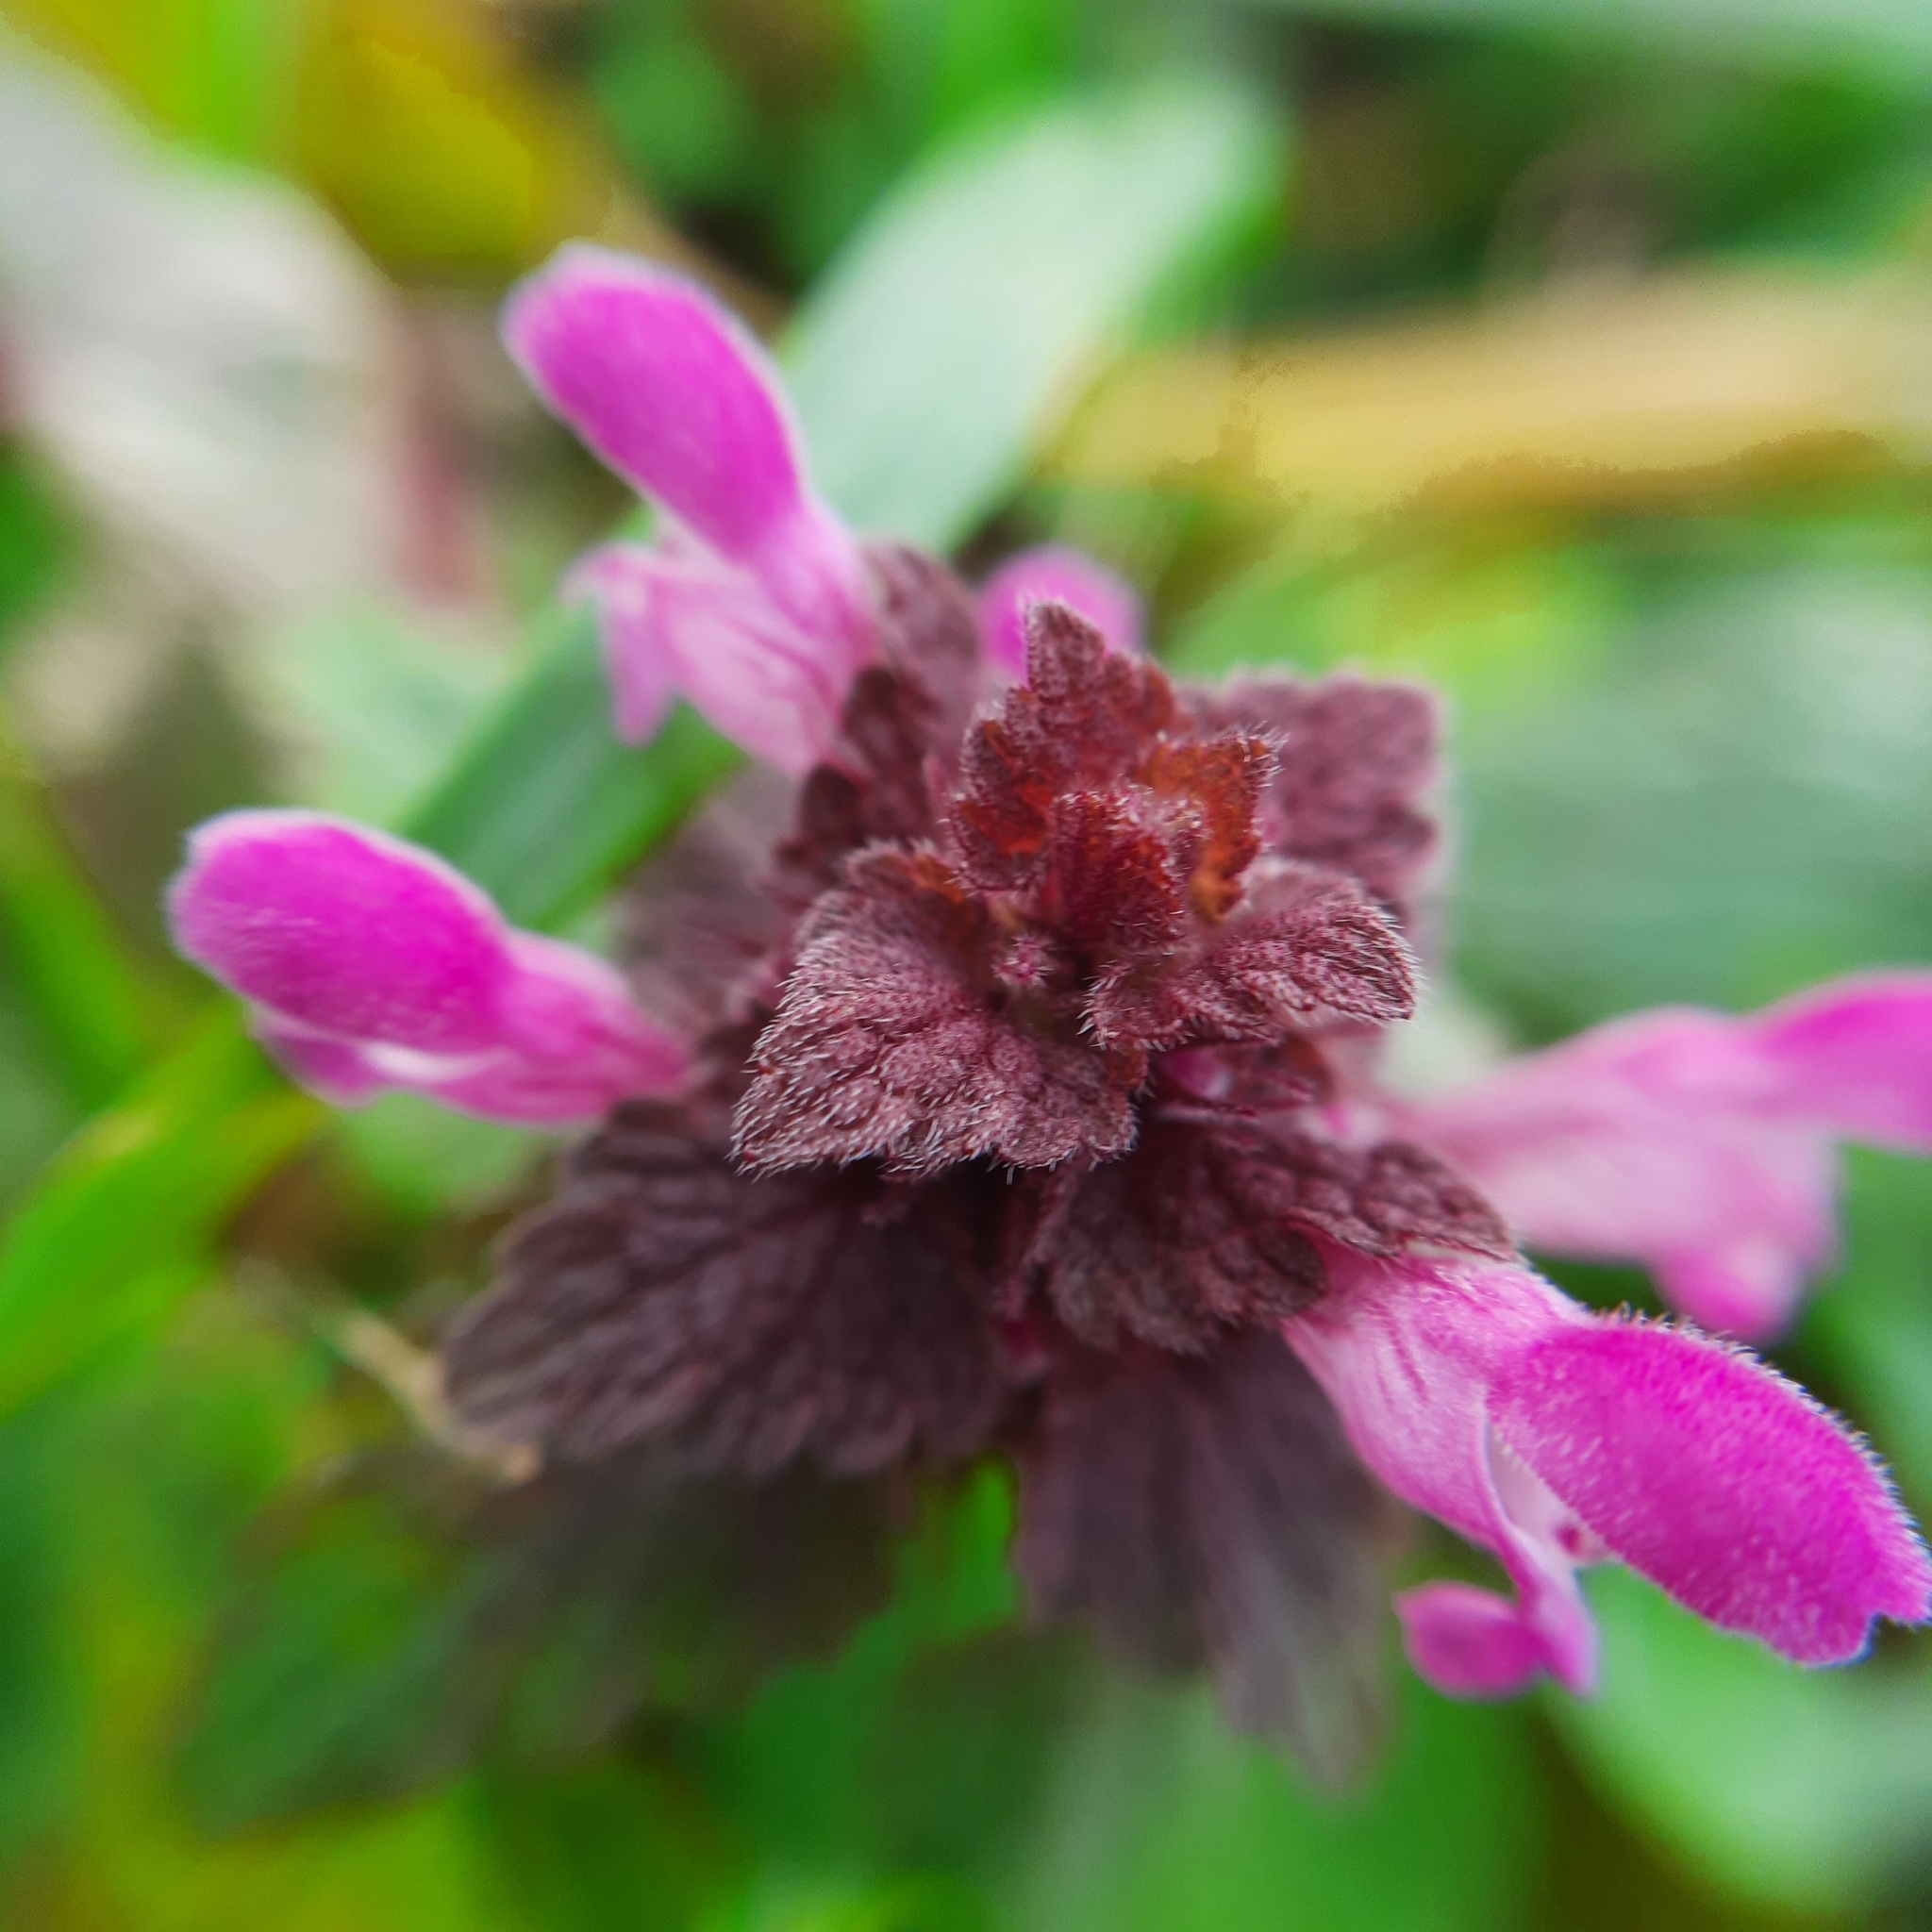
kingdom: Plantae
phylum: Tracheophyta
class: Magnoliopsida
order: Lamiales
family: Lamiaceae
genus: Lamium
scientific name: Lamium purpureum
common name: Red dead-nettle
